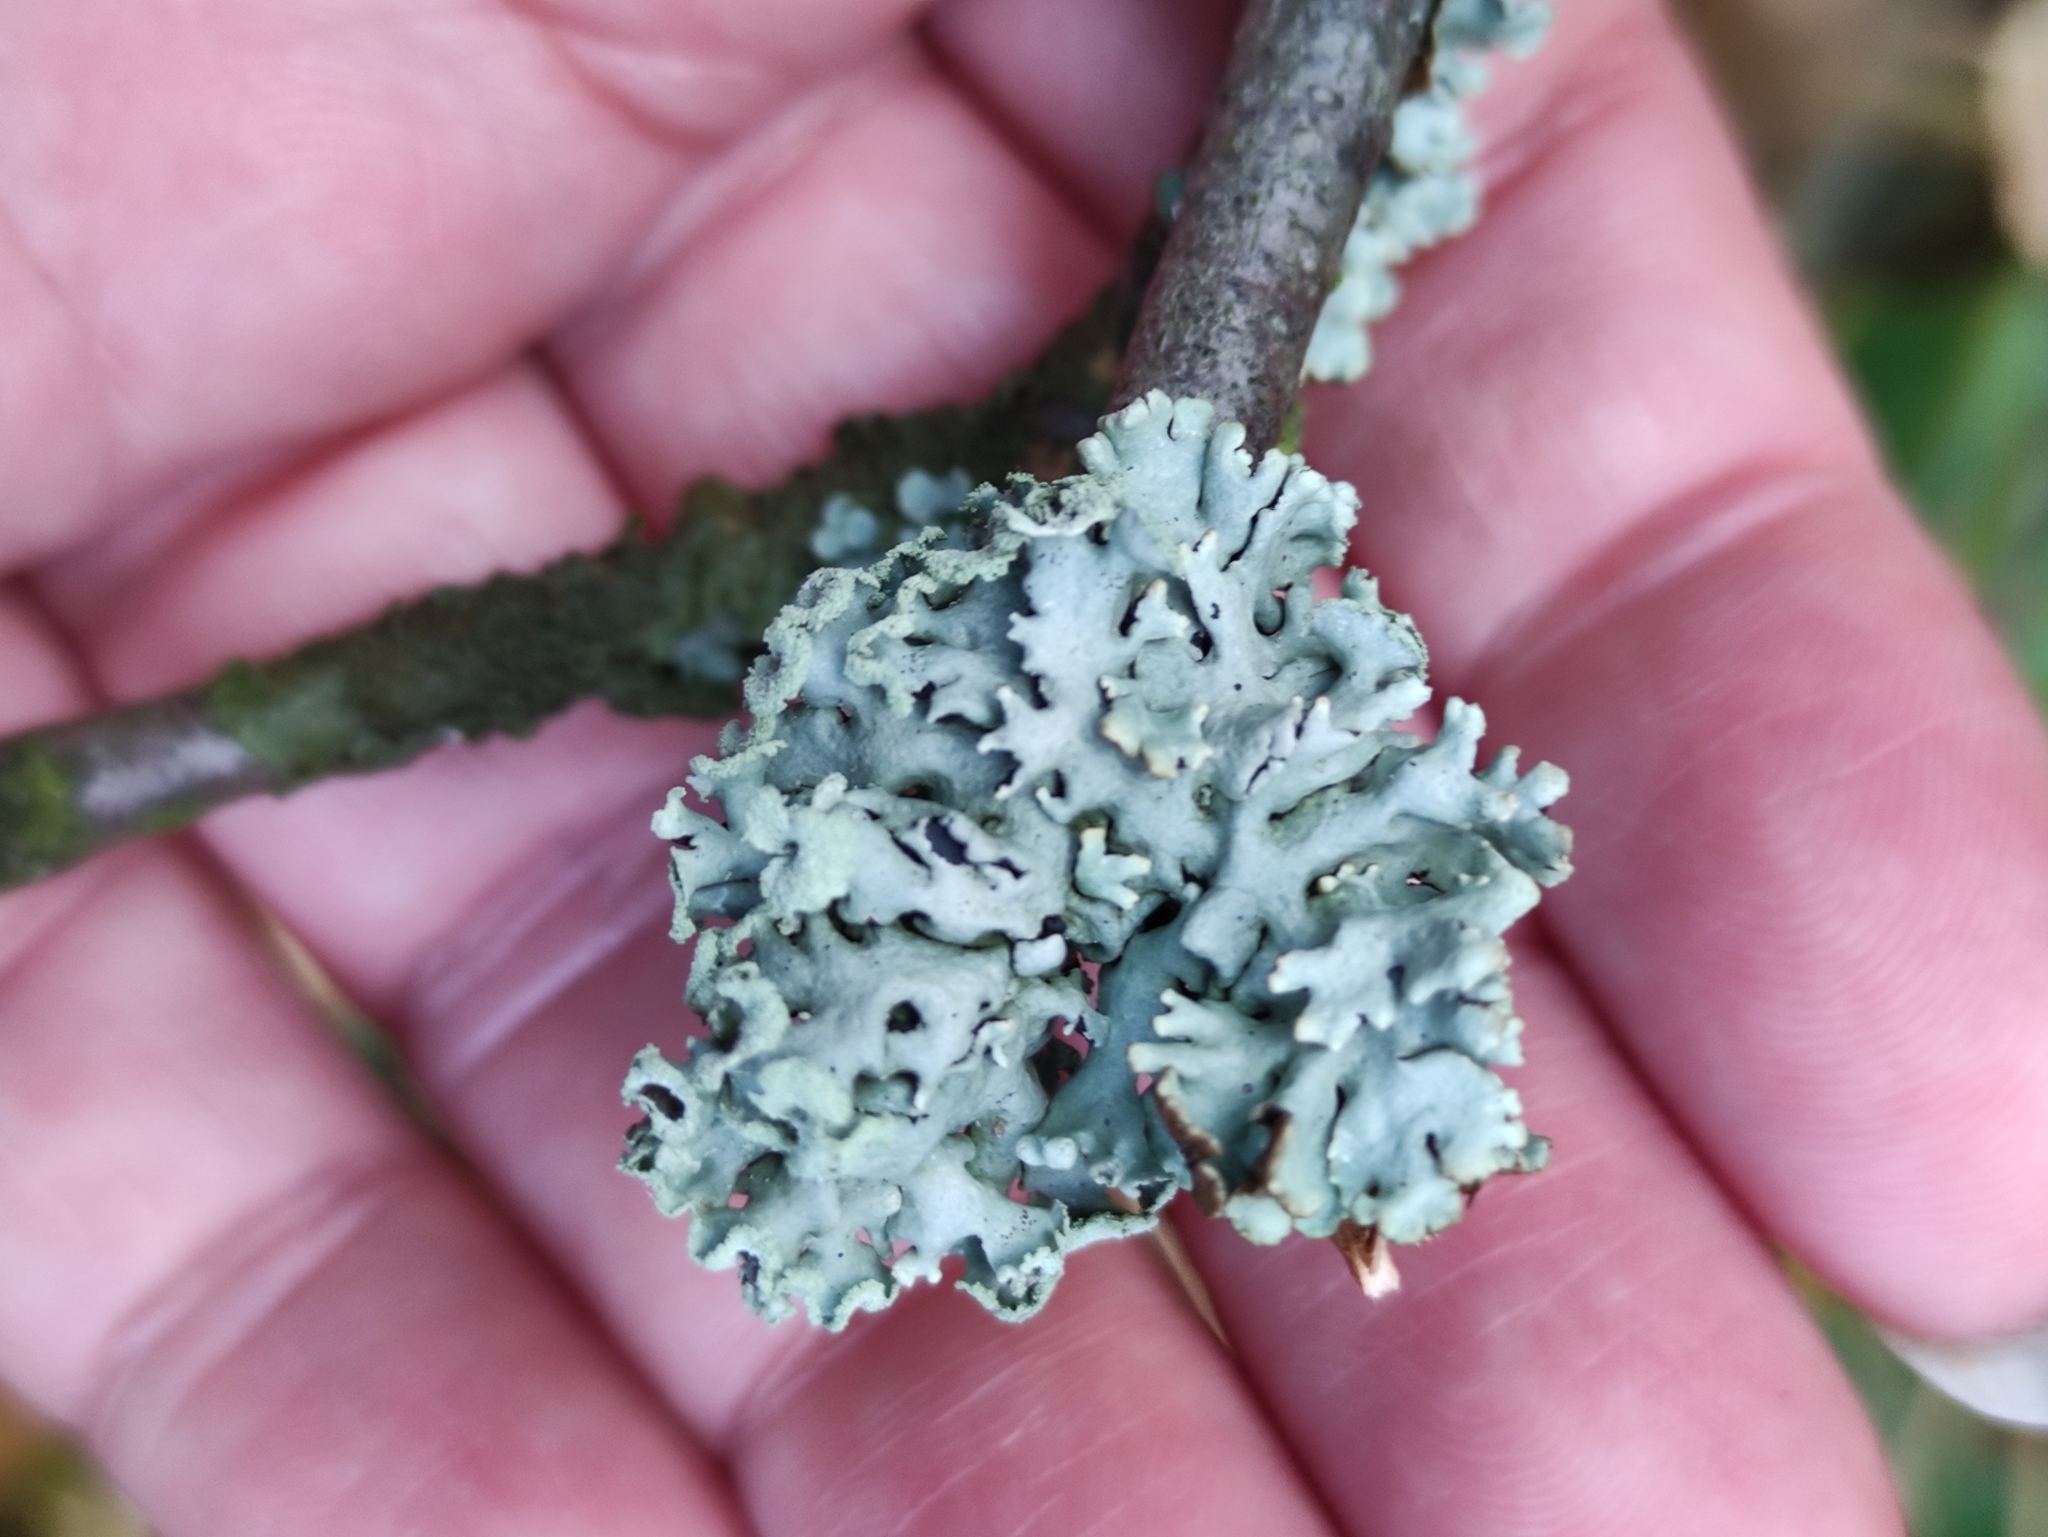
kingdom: Fungi
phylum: Ascomycota
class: Lecanoromycetes
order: Lecanorales
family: Parmeliaceae
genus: Hypogymnia
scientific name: Hypogymnia physodes
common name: Dark crottle
